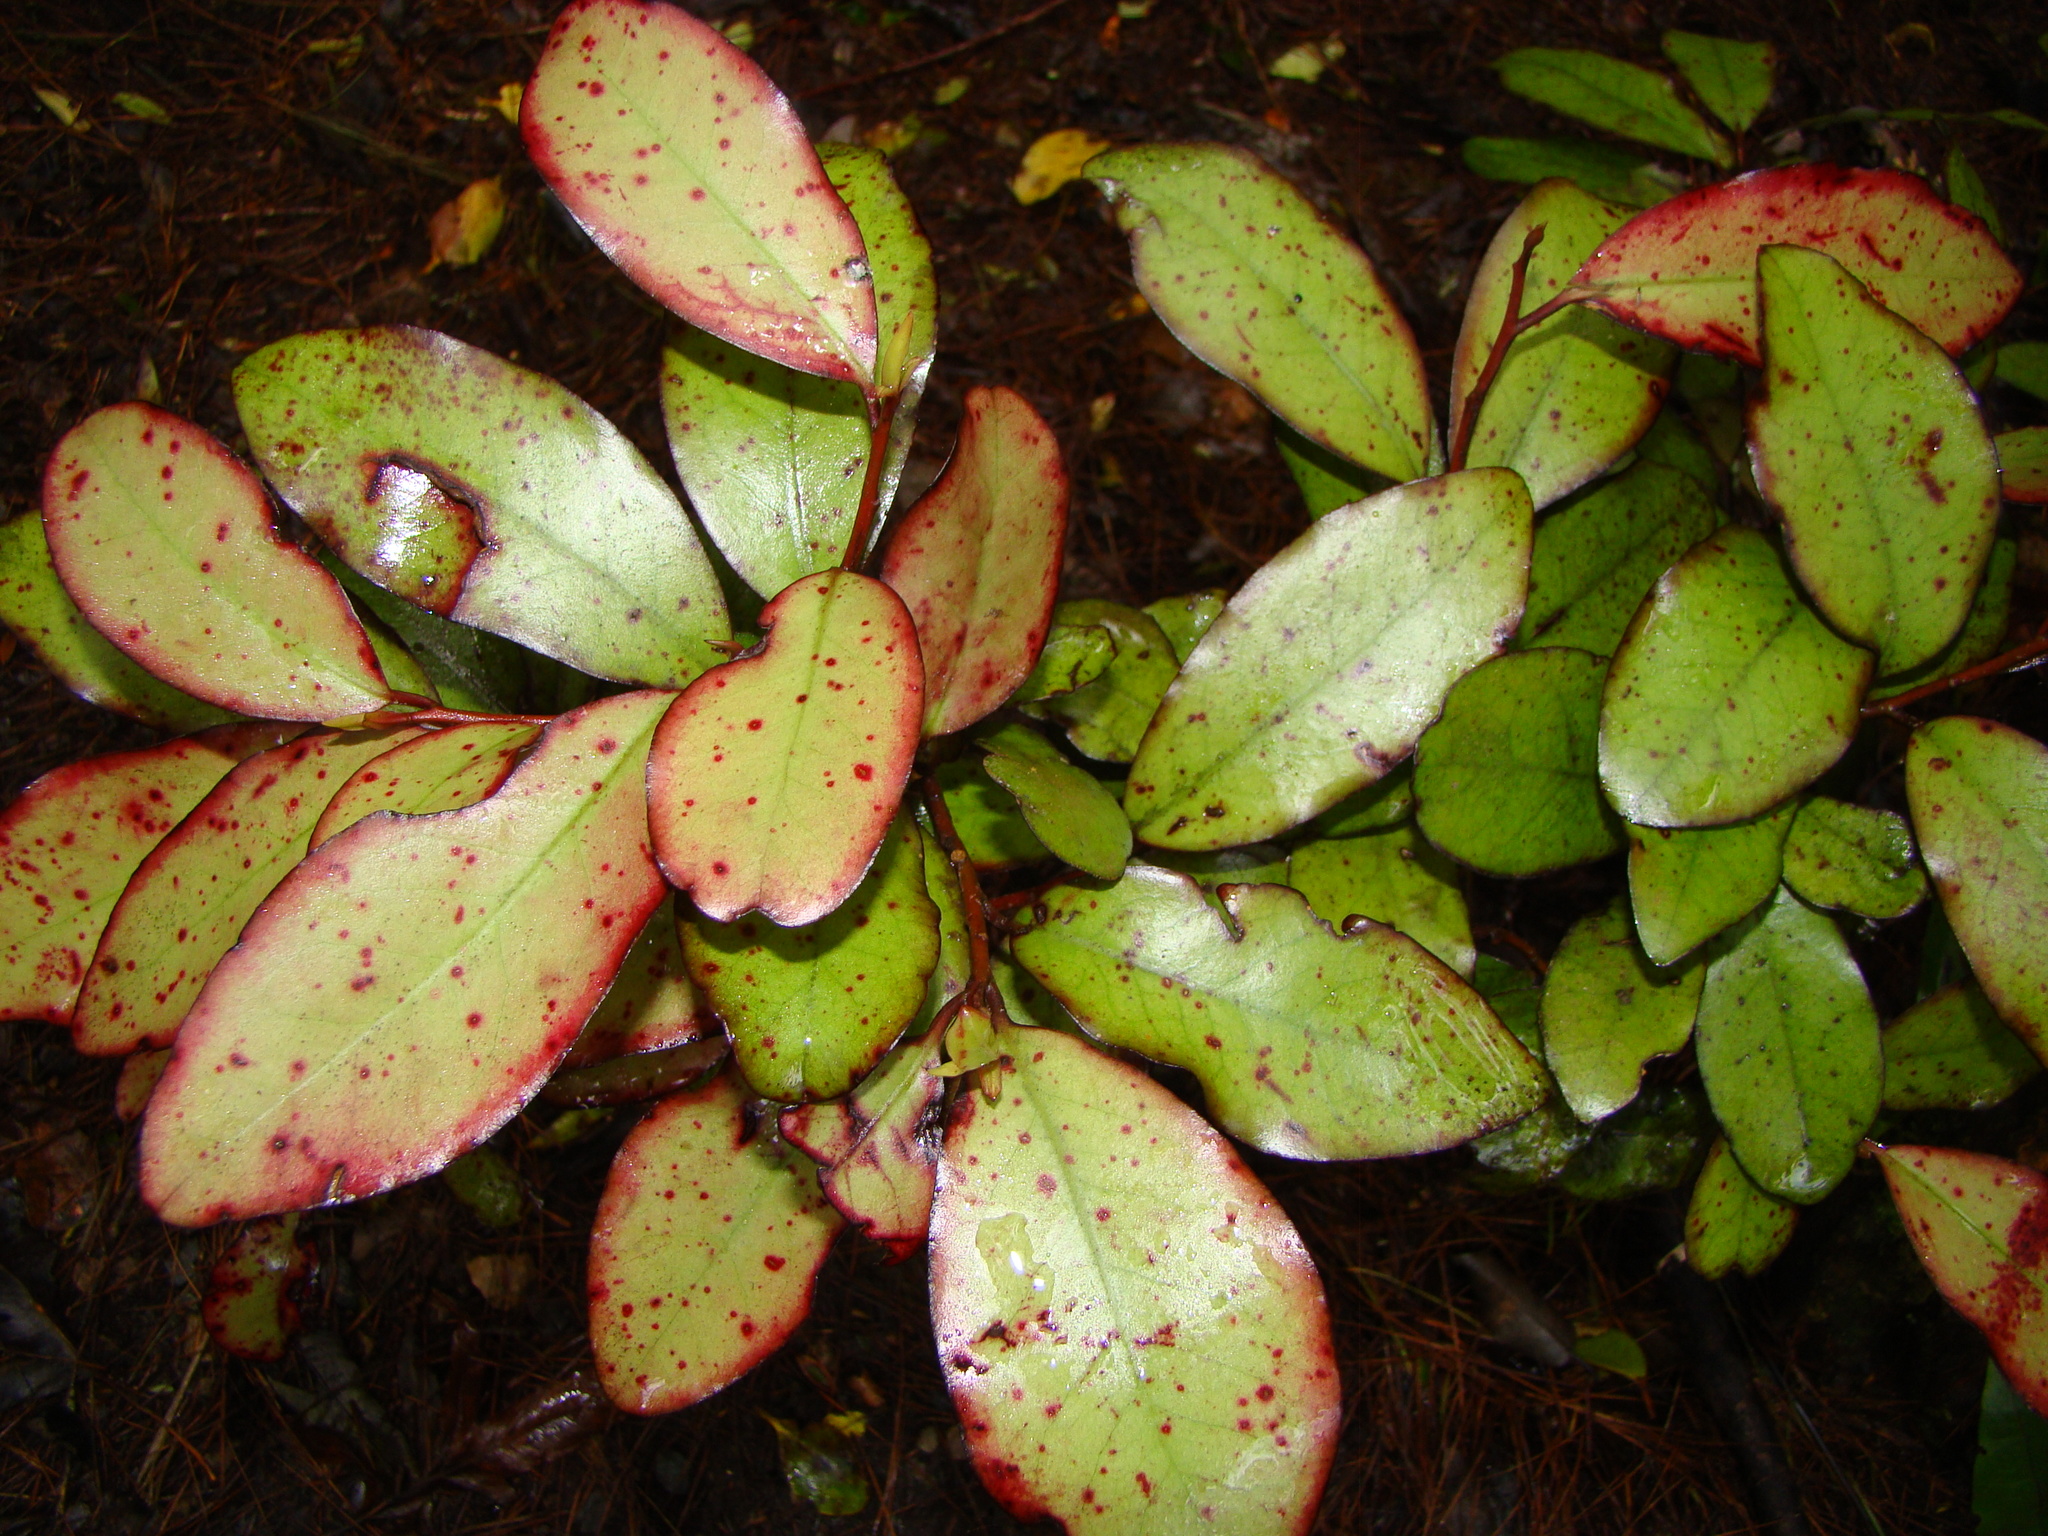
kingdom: Plantae
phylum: Tracheophyta
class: Magnoliopsida
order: Canellales
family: Winteraceae
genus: Pseudowintera
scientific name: Pseudowintera colorata
